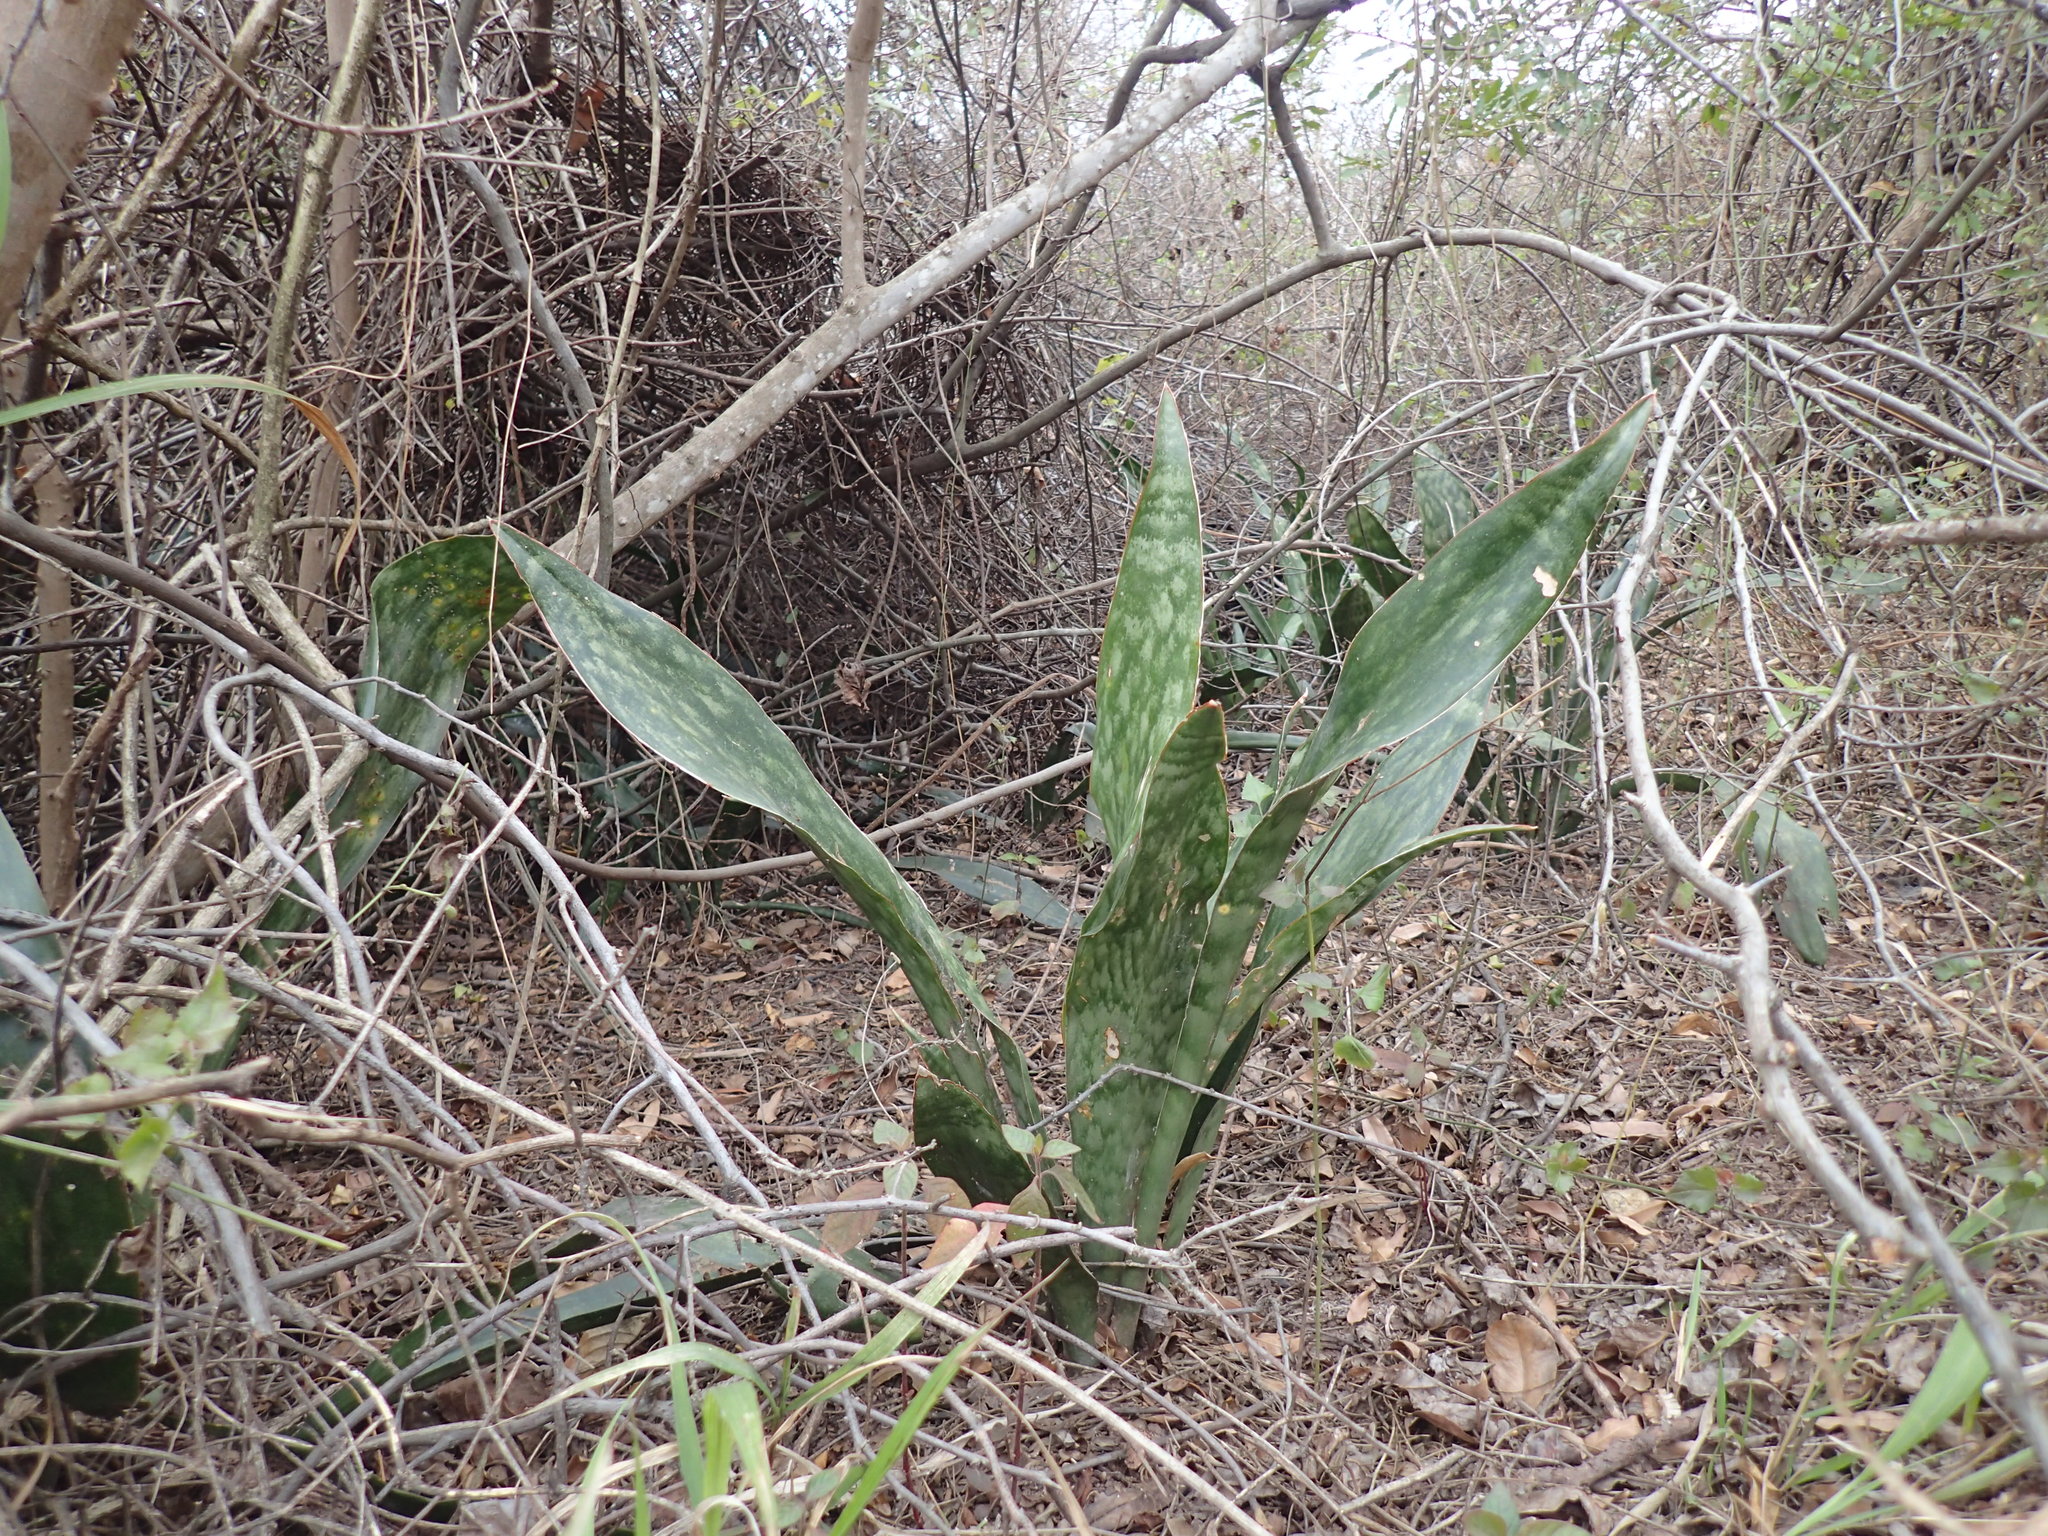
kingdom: Plantae
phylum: Tracheophyta
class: Liliopsida
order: Asparagales
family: Asparagaceae
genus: Dracaena
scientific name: Dracaena hyacinthoides
